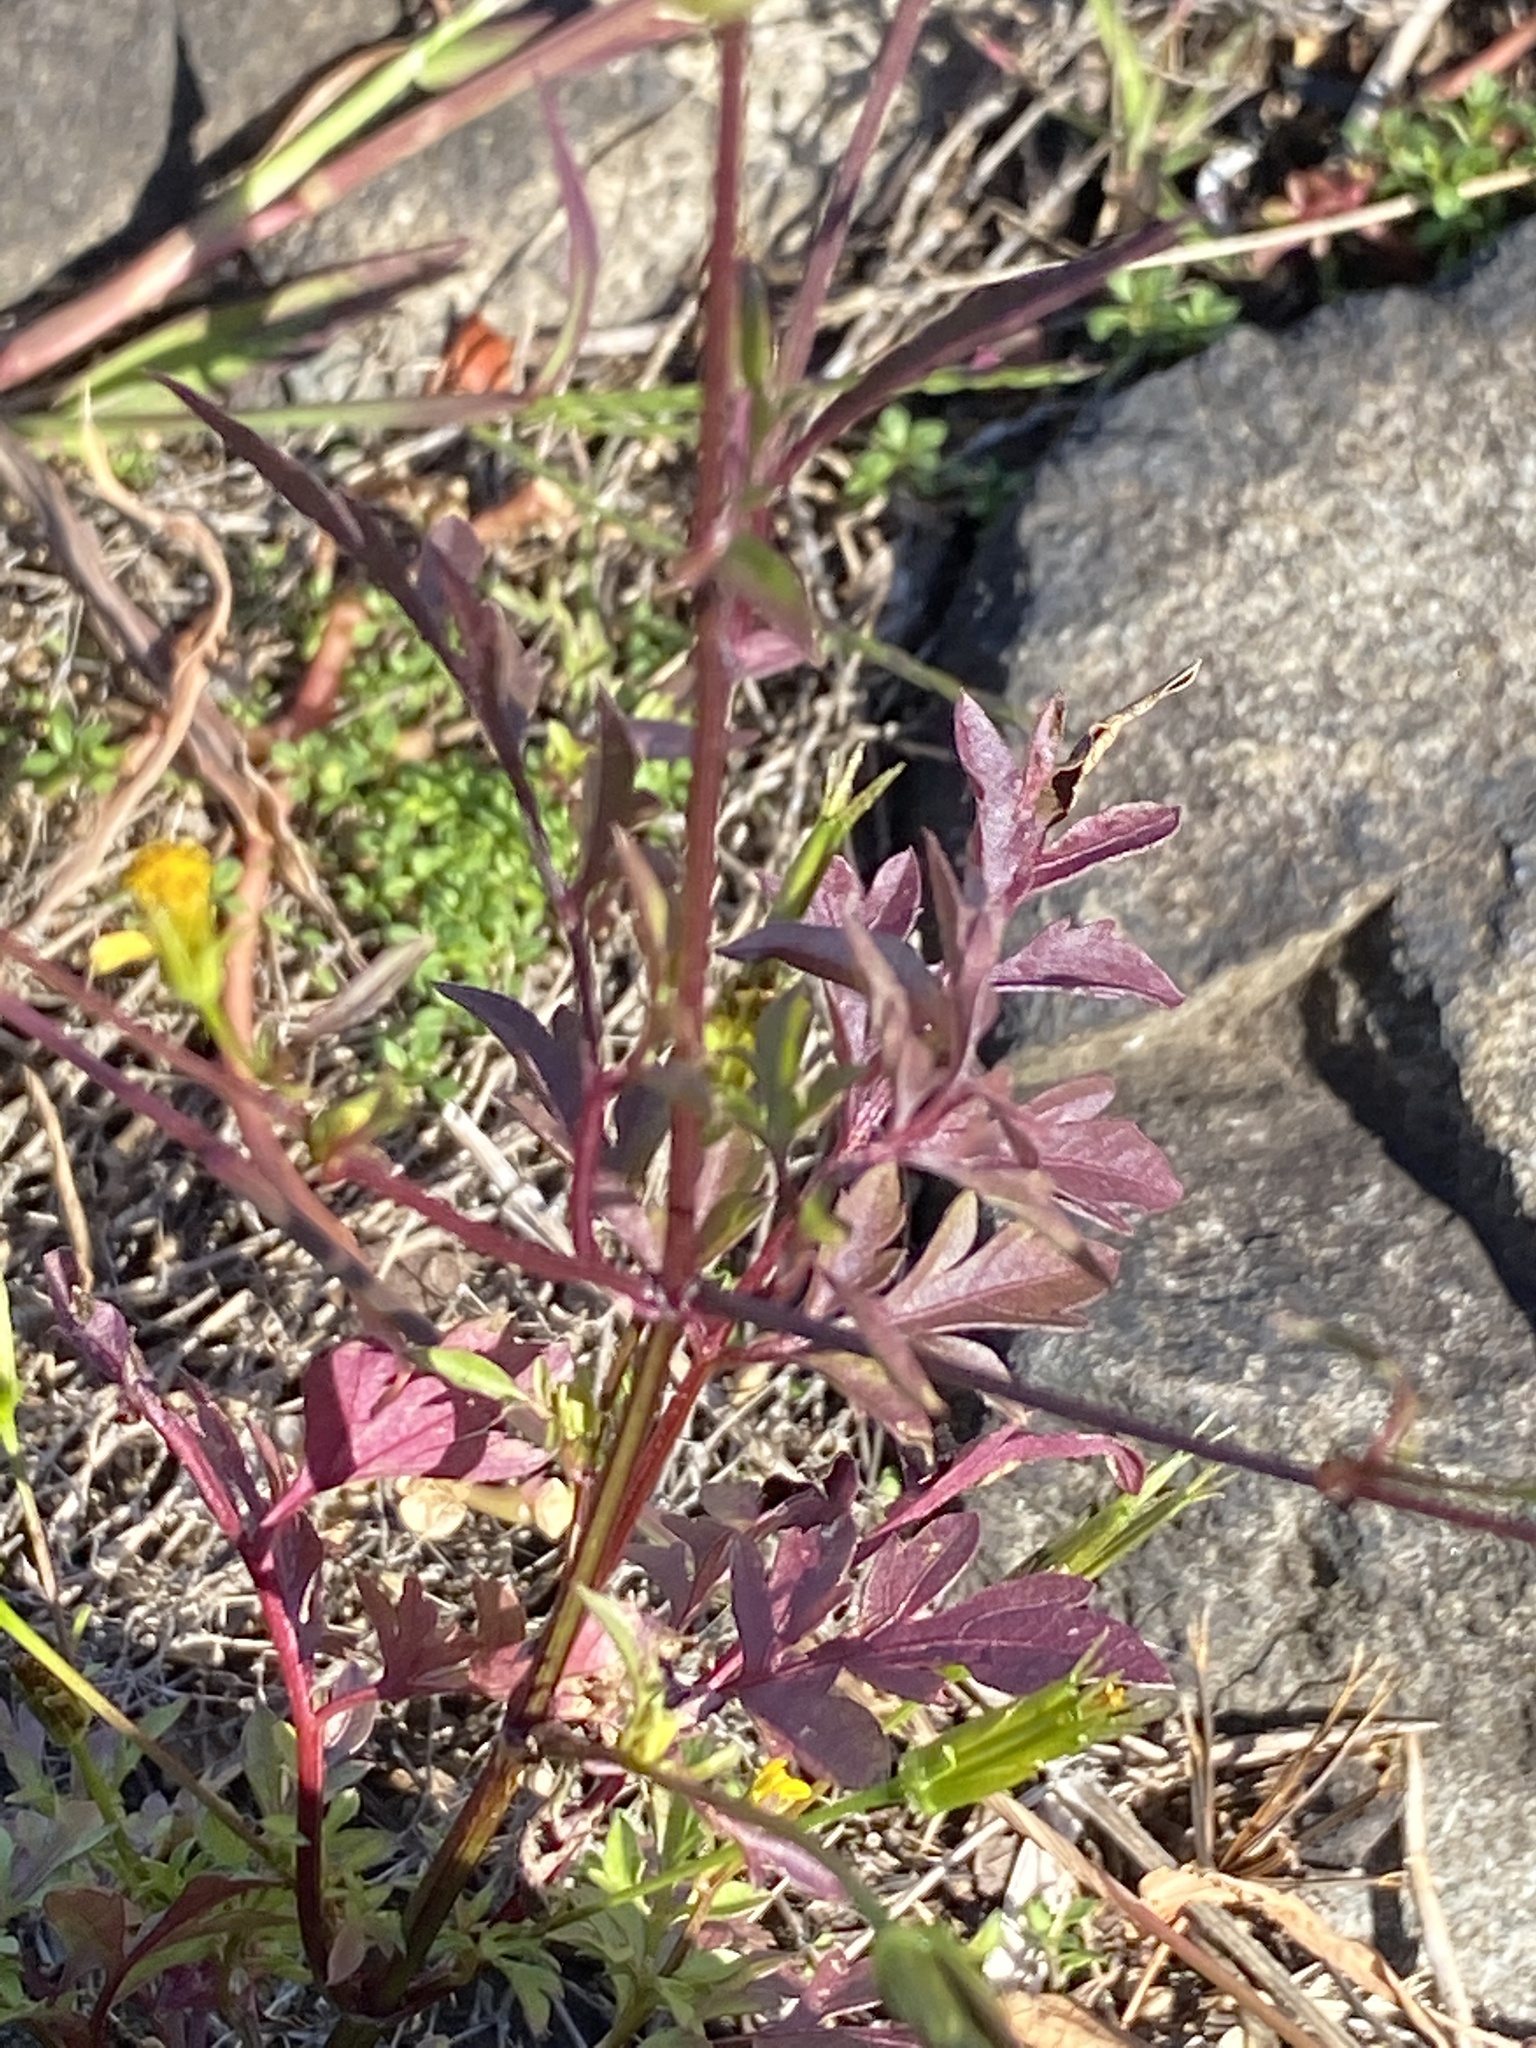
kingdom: Plantae
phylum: Tracheophyta
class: Magnoliopsida
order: Asterales
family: Asteraceae
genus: Bidens
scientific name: Bidens bipinnata
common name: Spanish-needles
